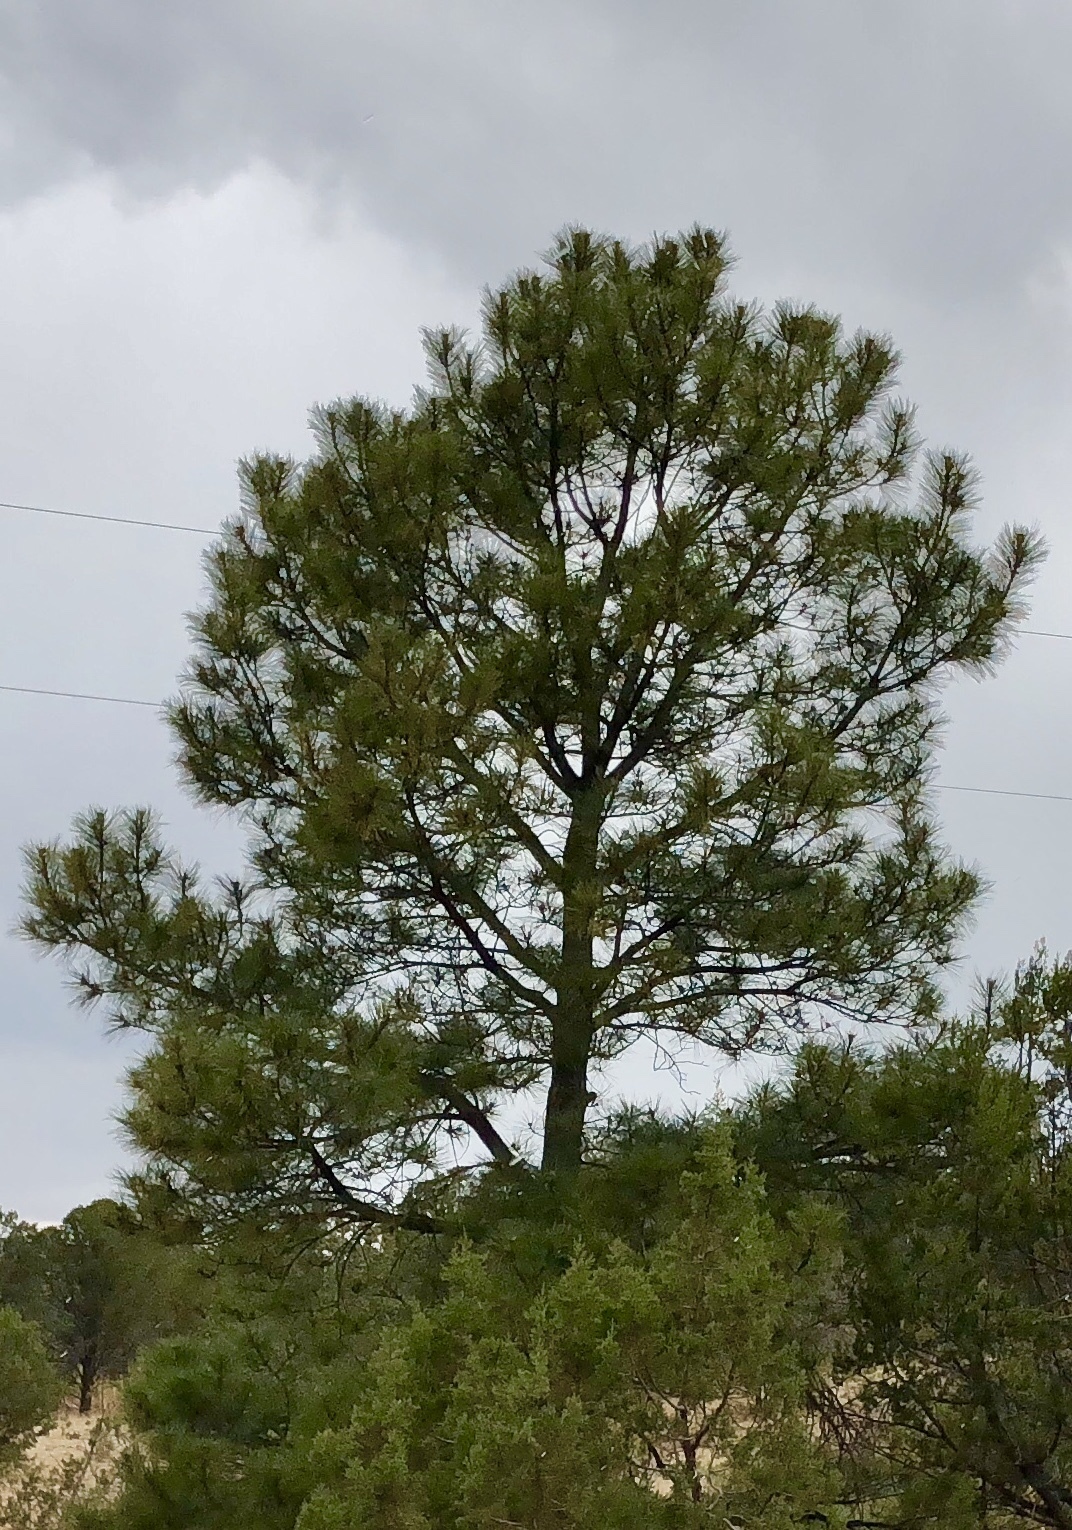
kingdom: Plantae
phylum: Tracheophyta
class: Pinopsida
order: Pinales
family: Pinaceae
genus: Pinus
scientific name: Pinus ponderosa
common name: Western yellow-pine
